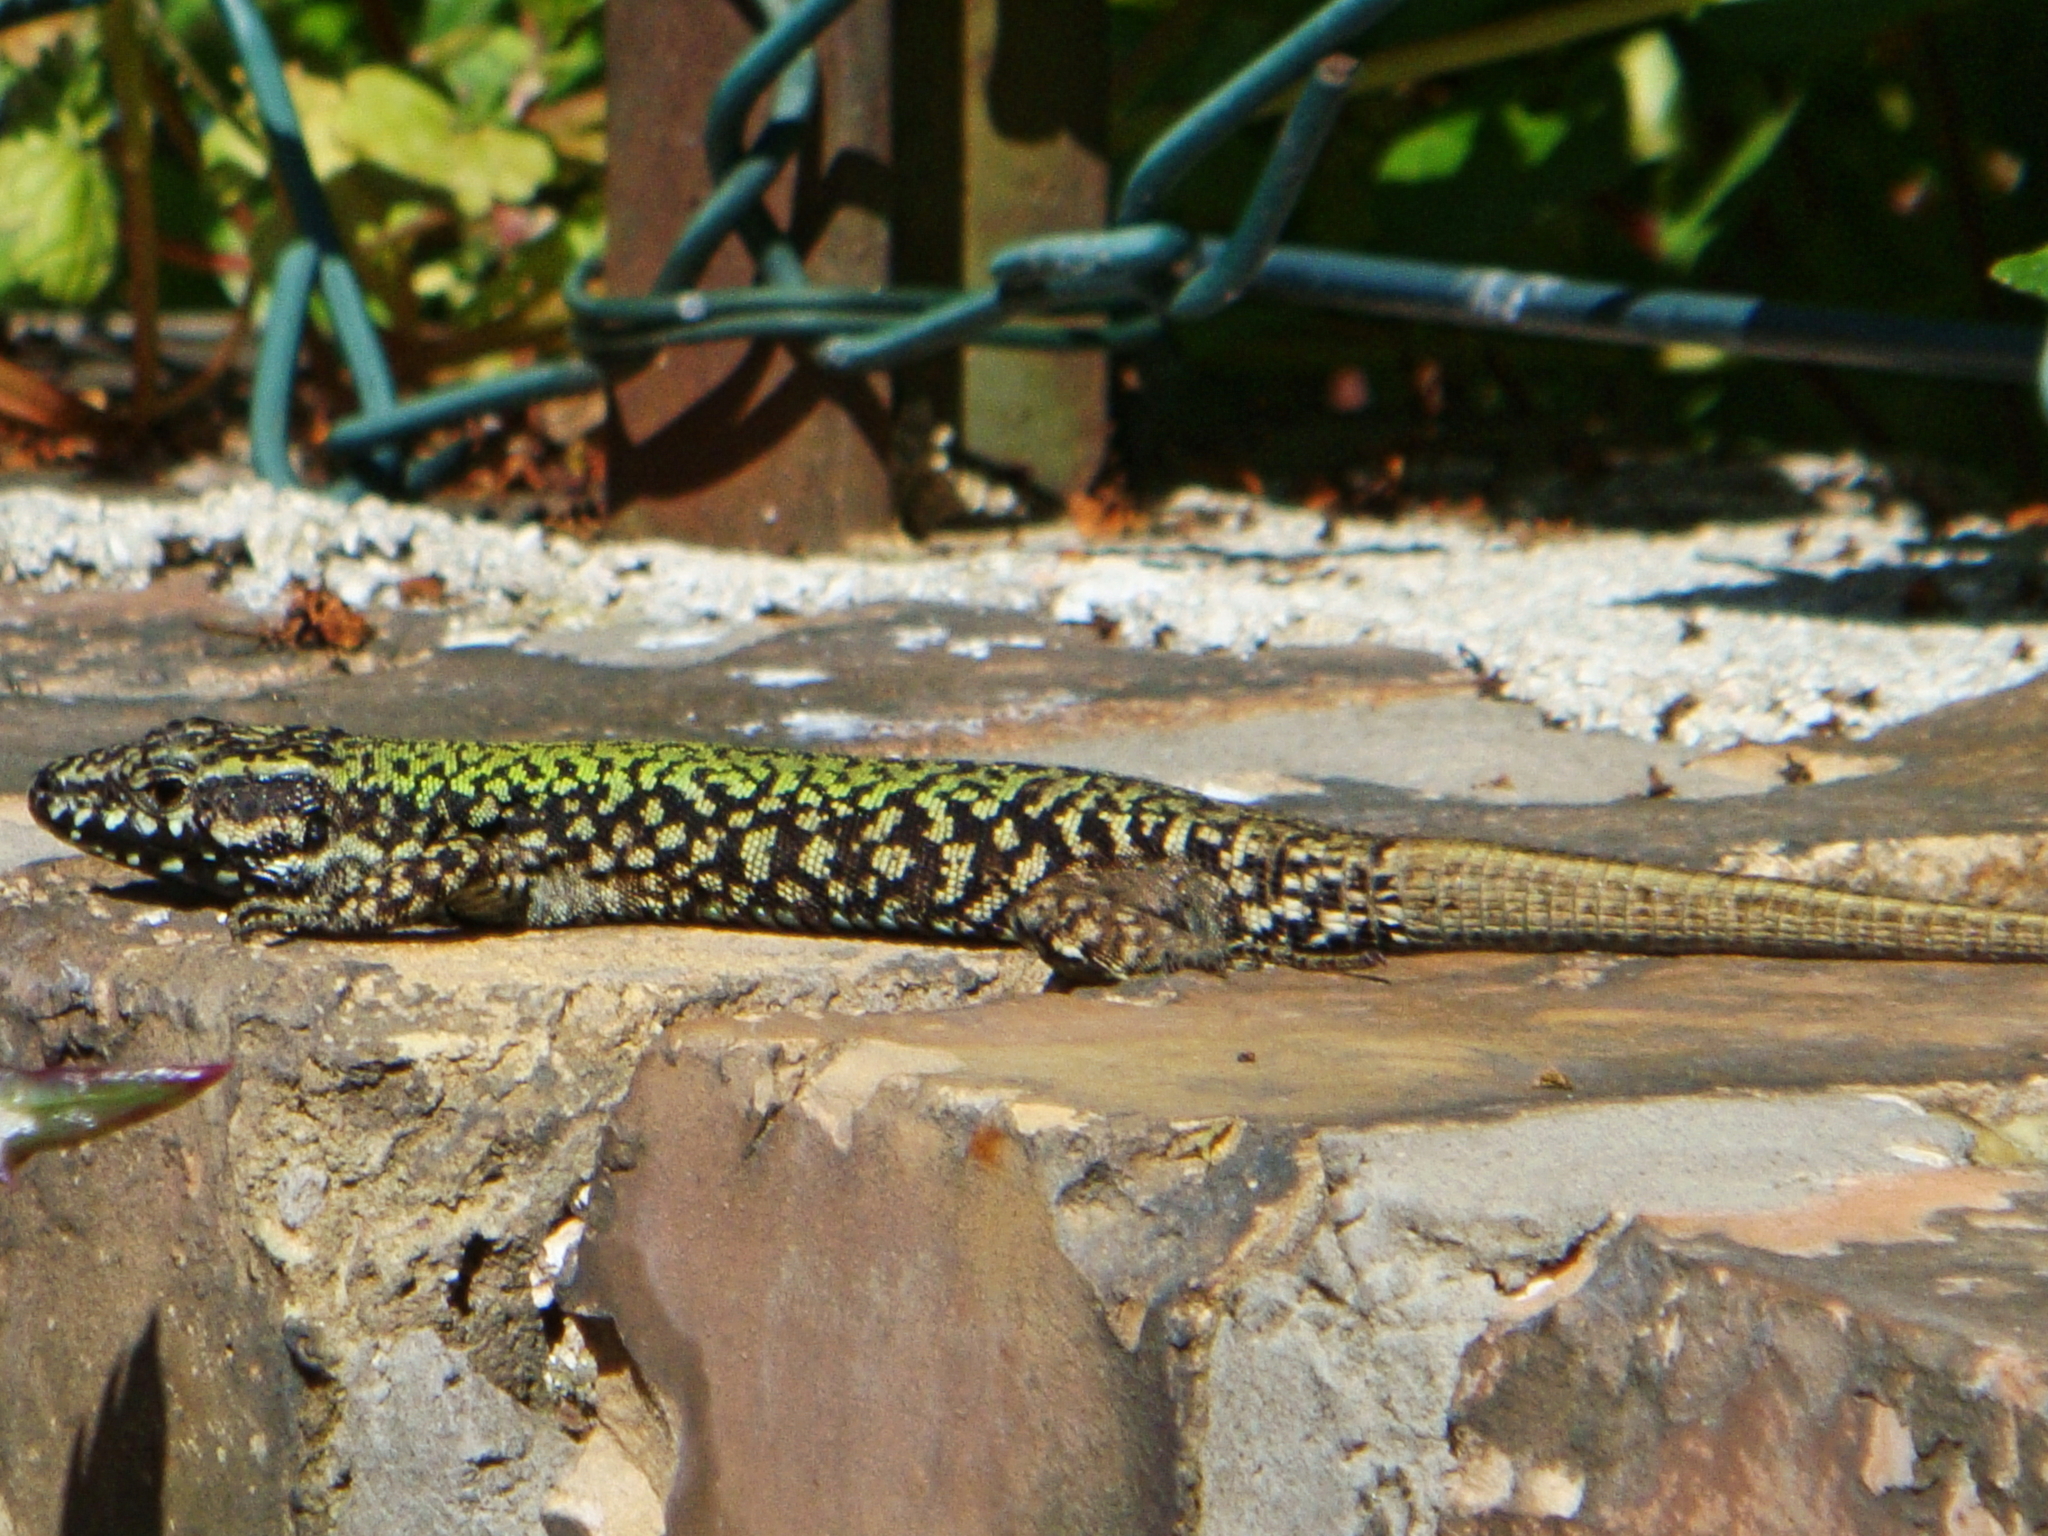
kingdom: Animalia
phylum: Chordata
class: Squamata
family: Lacertidae
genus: Podarcis
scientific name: Podarcis muralis
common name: Common wall lizard
